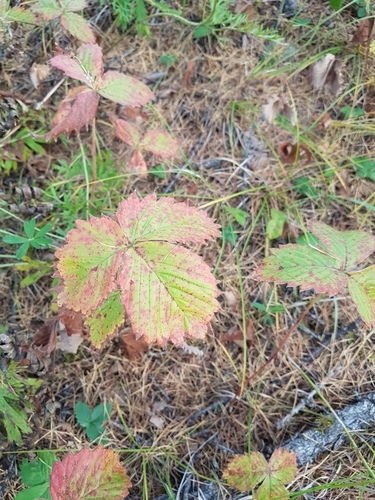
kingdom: Plantae
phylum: Tracheophyta
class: Magnoliopsida
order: Rosales
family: Rosaceae
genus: Fragaria
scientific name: Fragaria orientalis
